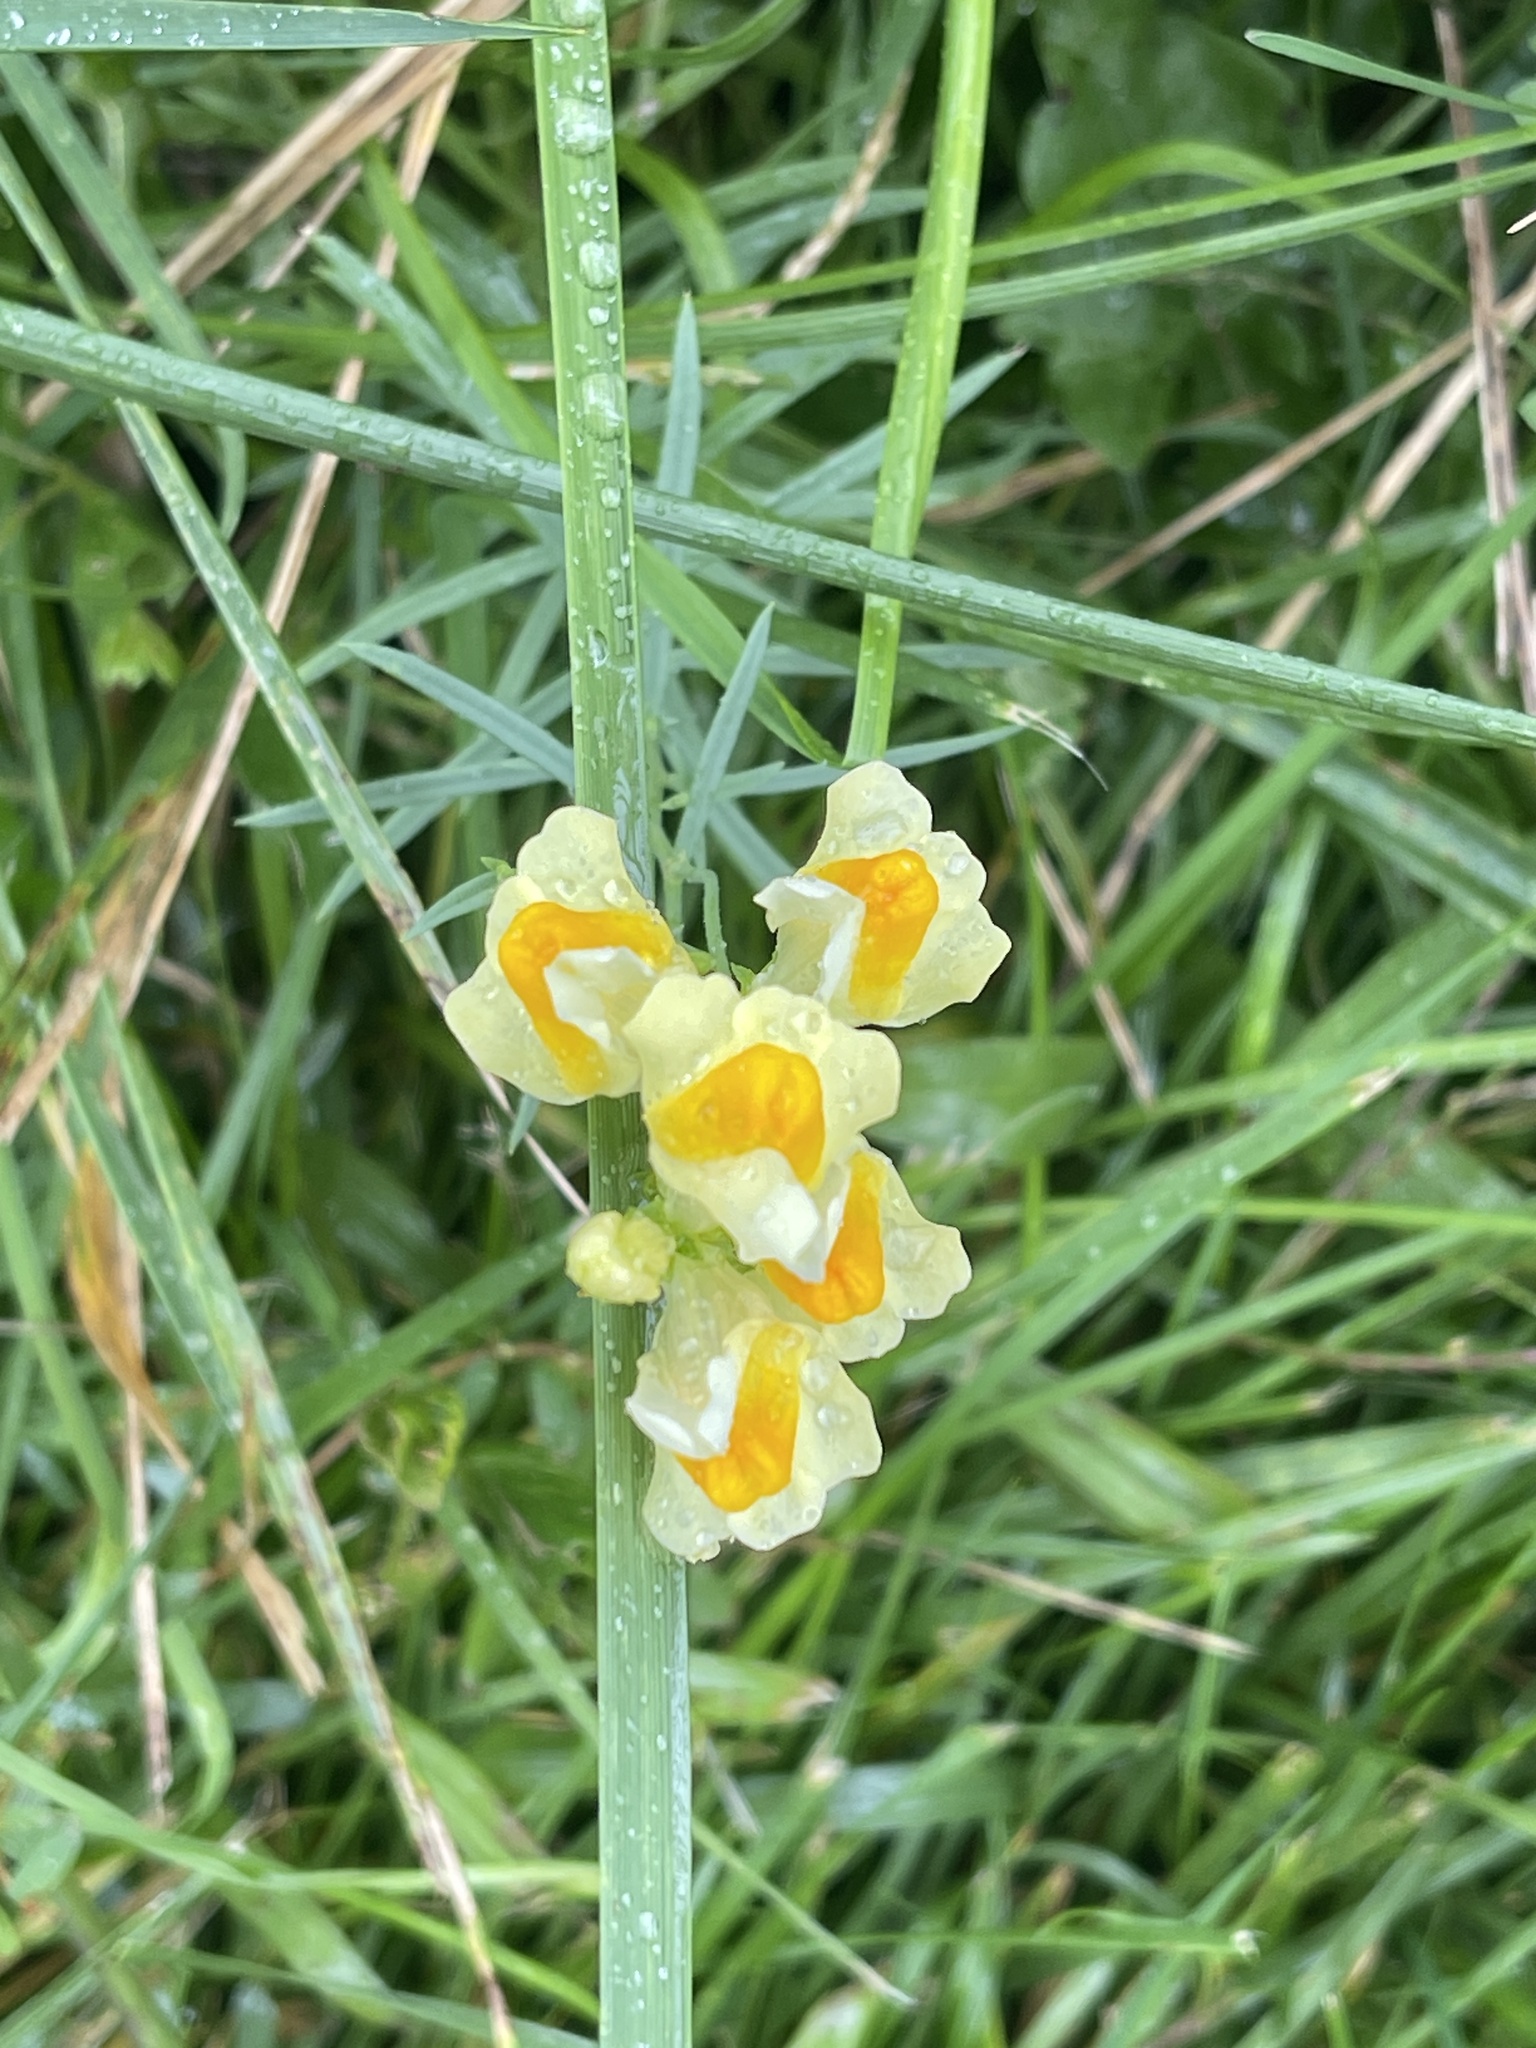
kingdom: Plantae
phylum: Tracheophyta
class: Magnoliopsida
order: Lamiales
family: Plantaginaceae
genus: Linaria
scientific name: Linaria vulgaris
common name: Butter and eggs
